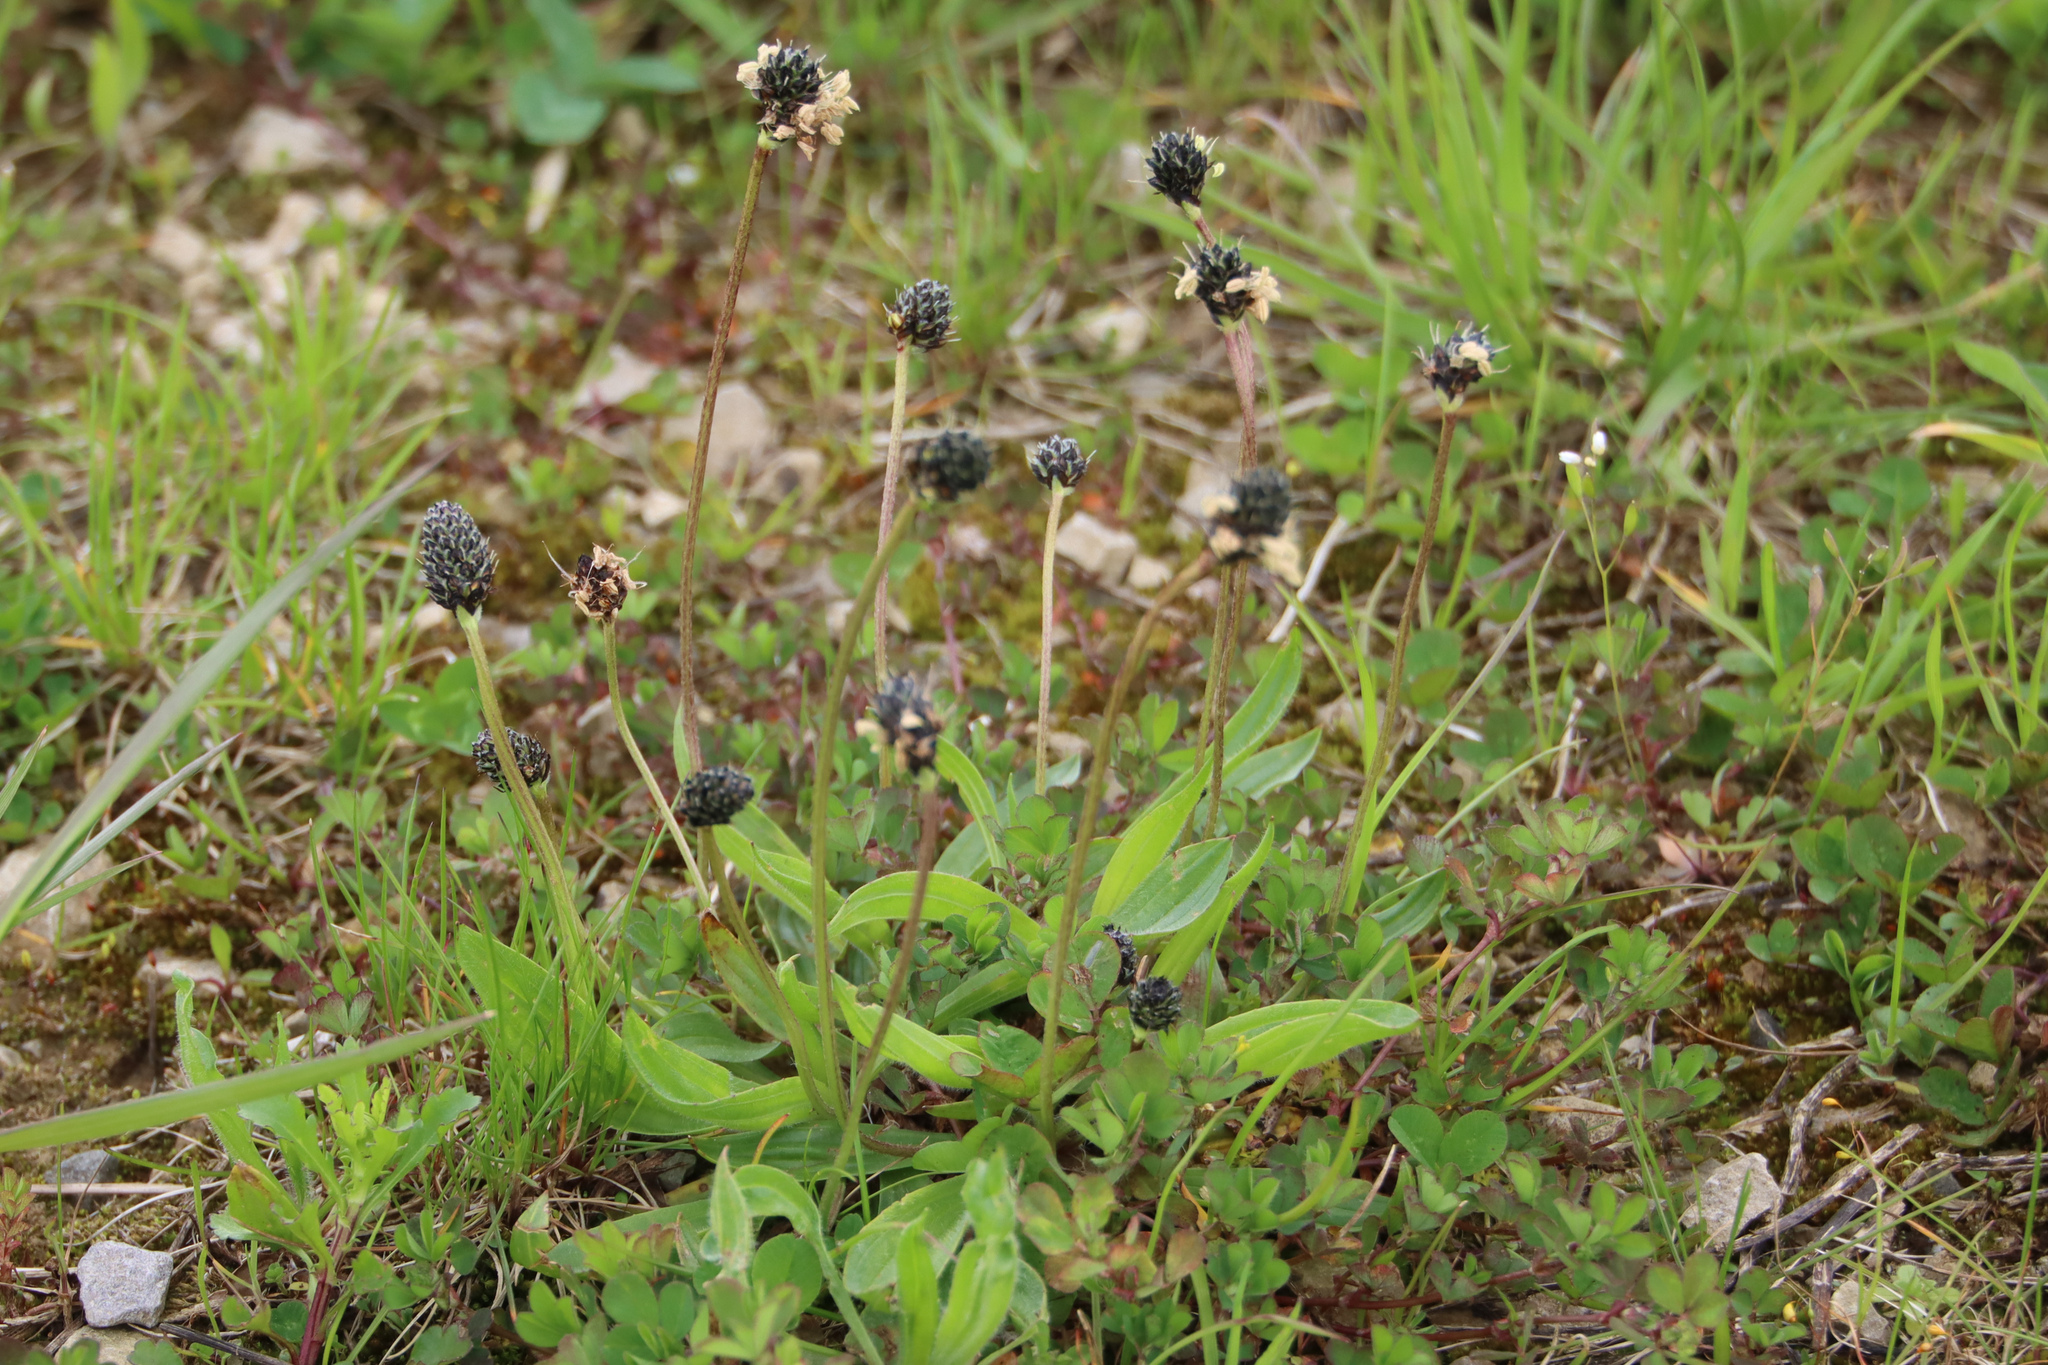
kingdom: Plantae
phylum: Tracheophyta
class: Magnoliopsida
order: Lamiales
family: Plantaginaceae
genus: Plantago
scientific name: Plantago lanceolata
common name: Ribwort plantain
